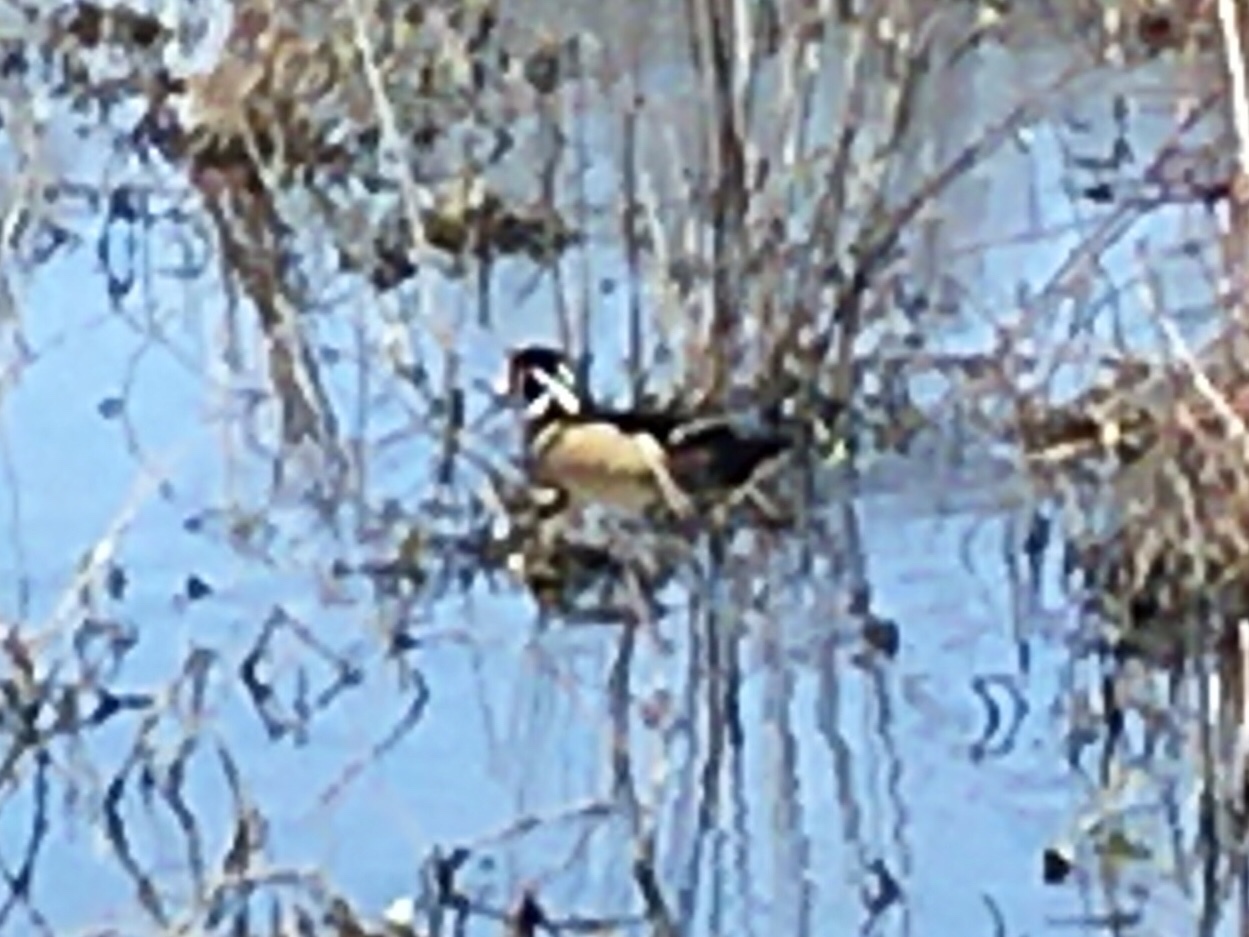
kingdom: Animalia
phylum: Chordata
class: Aves
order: Anseriformes
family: Anatidae
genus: Aix
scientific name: Aix sponsa
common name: Wood duck
